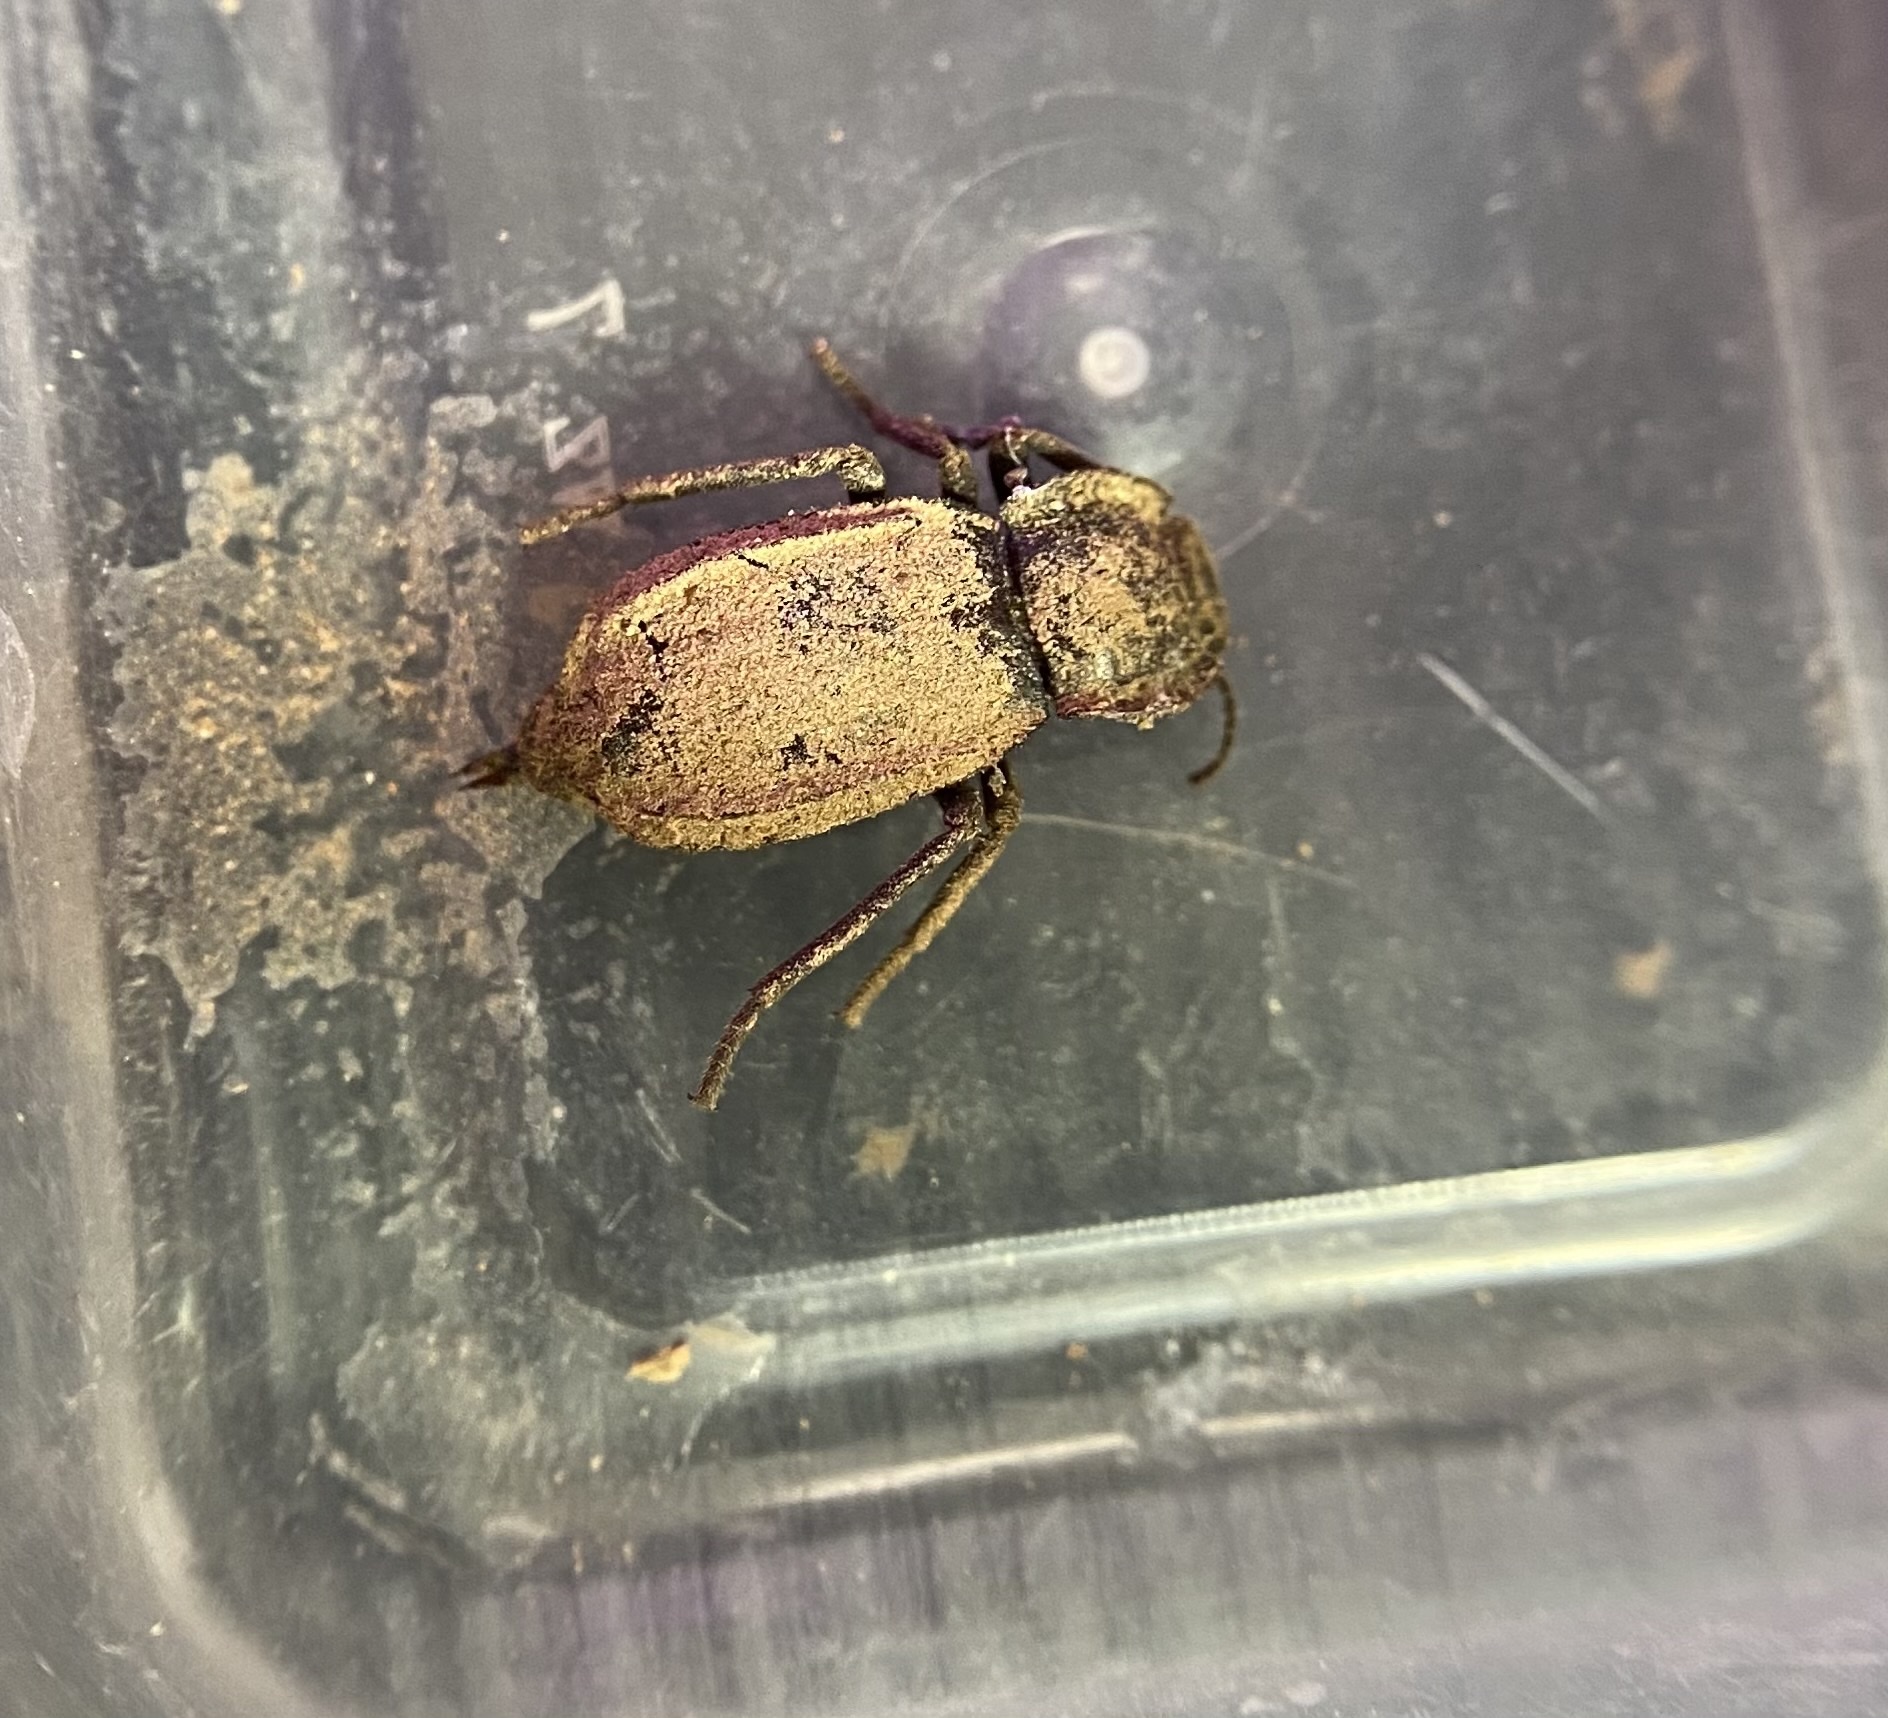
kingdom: Animalia
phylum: Arthropoda
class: Insecta
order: Coleoptera
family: Tenebrionidae
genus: Stenomorpha
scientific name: Stenomorpha parallela
